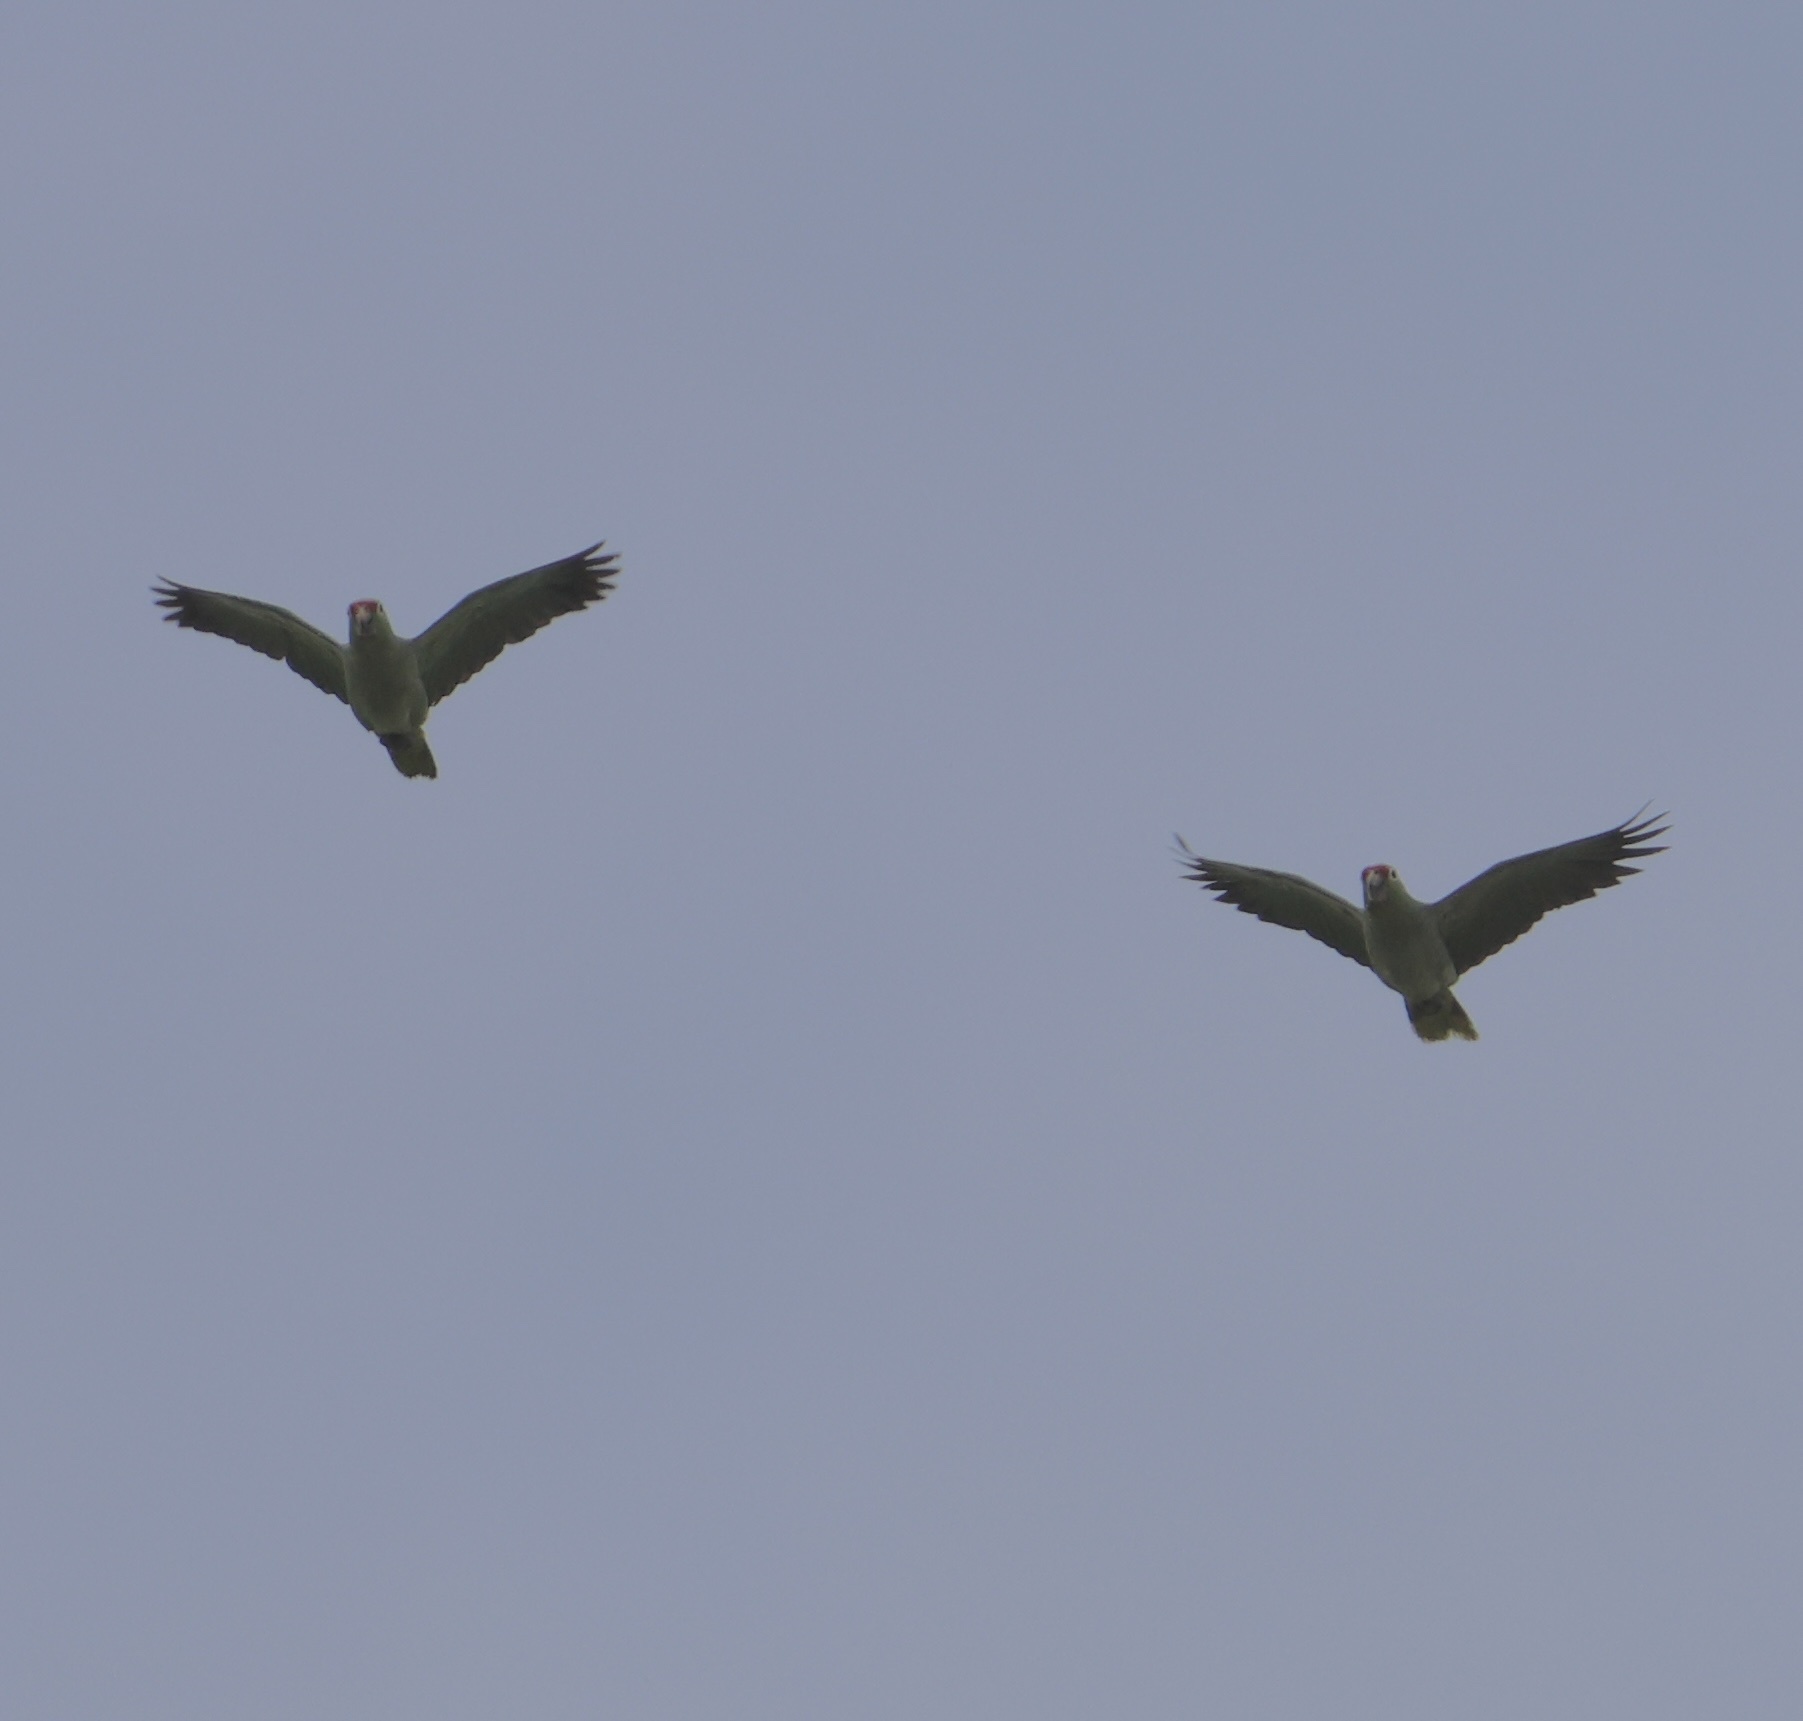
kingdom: Animalia
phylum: Chordata
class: Aves
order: Psittaciformes
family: Psittacidae
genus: Amazona
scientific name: Amazona autumnalis
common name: Red-lored amazon
